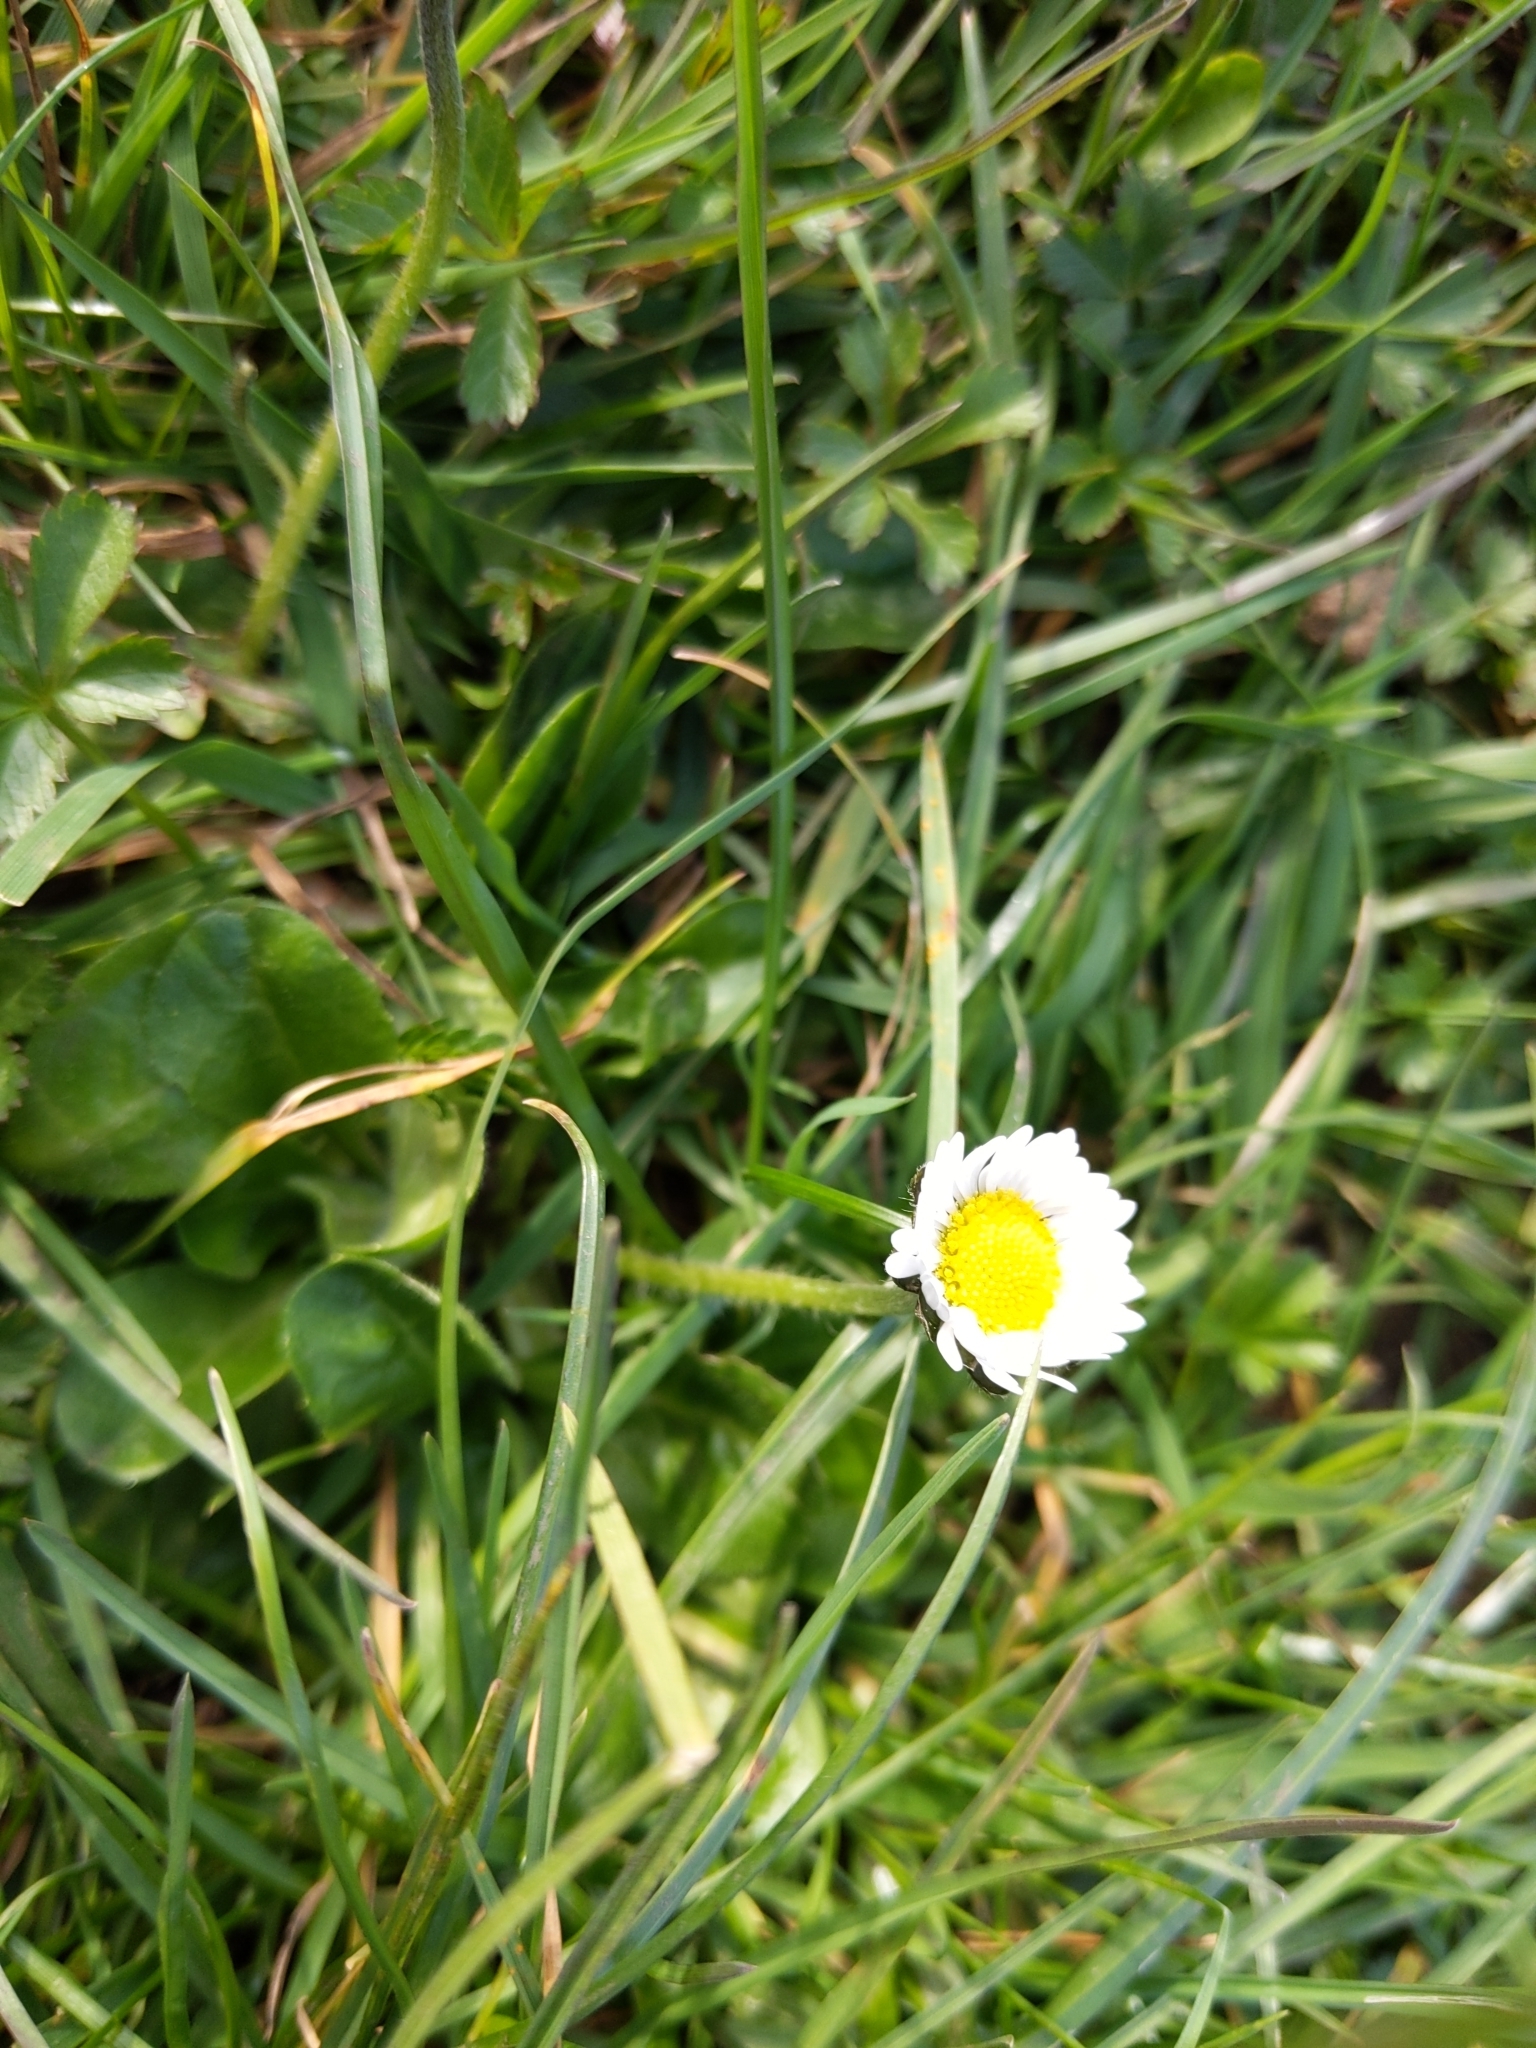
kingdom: Plantae
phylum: Tracheophyta
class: Magnoliopsida
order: Asterales
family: Asteraceae
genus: Bellis
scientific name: Bellis perennis
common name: Lawndaisy
